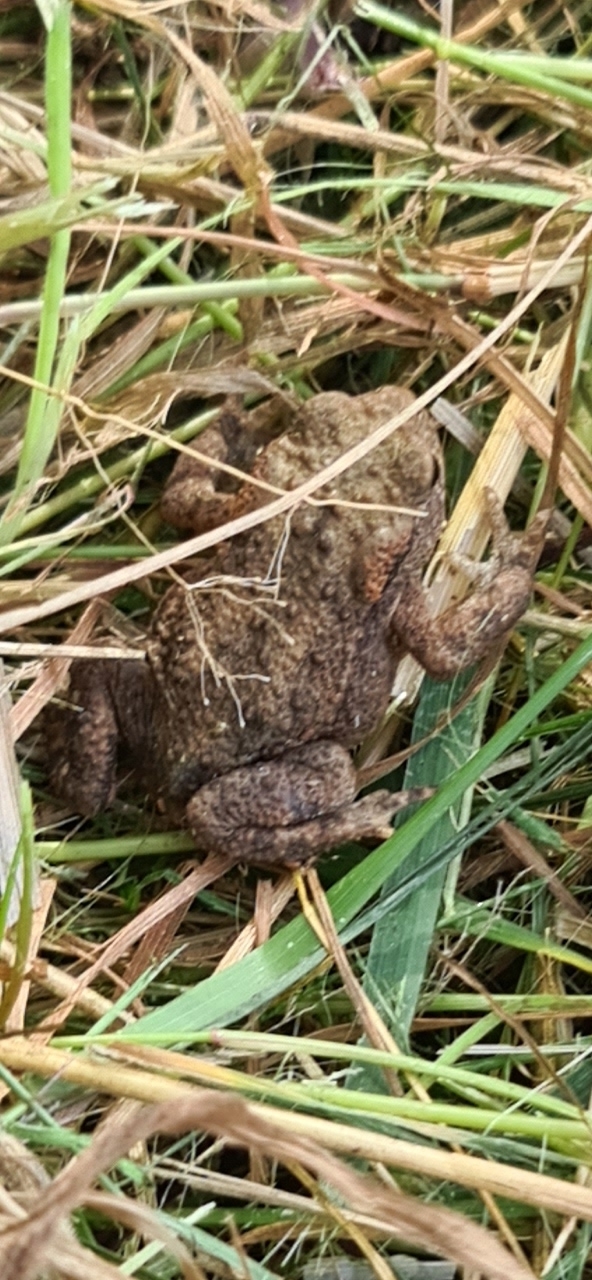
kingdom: Animalia
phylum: Chordata
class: Amphibia
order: Anura
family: Bufonidae
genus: Bufo
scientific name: Bufo bufo
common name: Common toad
